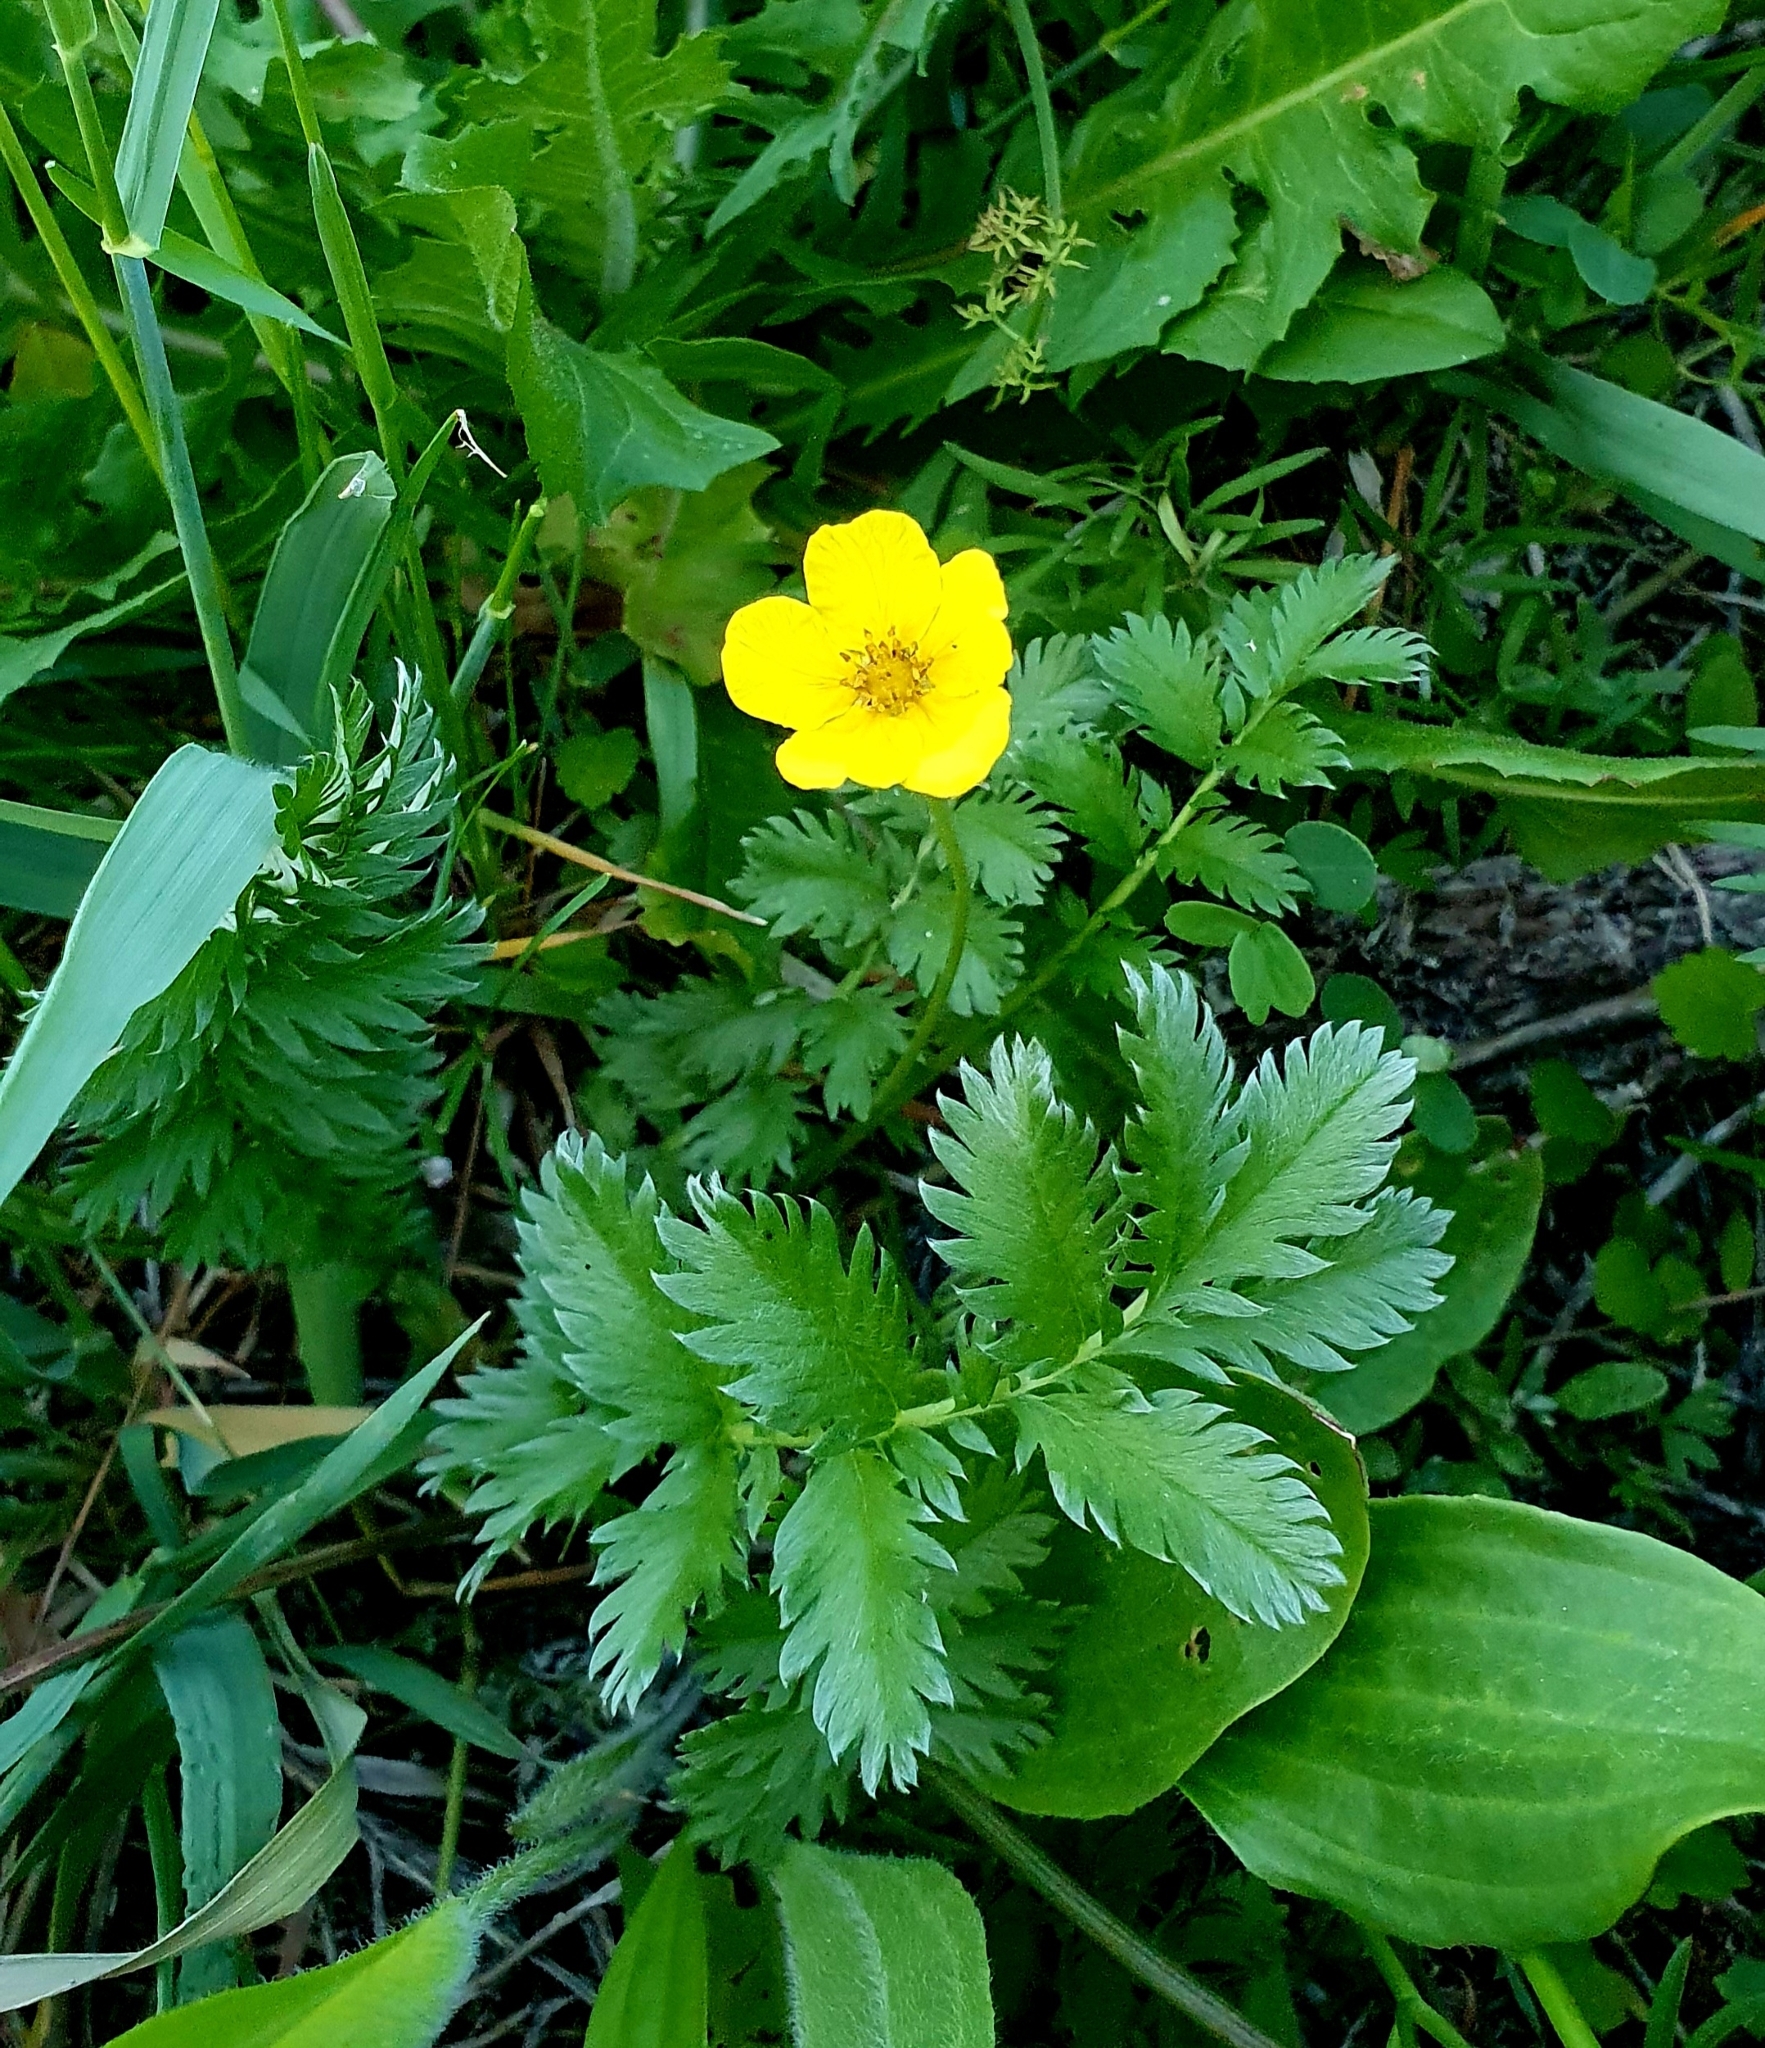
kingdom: Plantae
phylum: Tracheophyta
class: Magnoliopsida
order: Rosales
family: Rosaceae
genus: Argentina
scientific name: Argentina anserina
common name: Common silverweed
